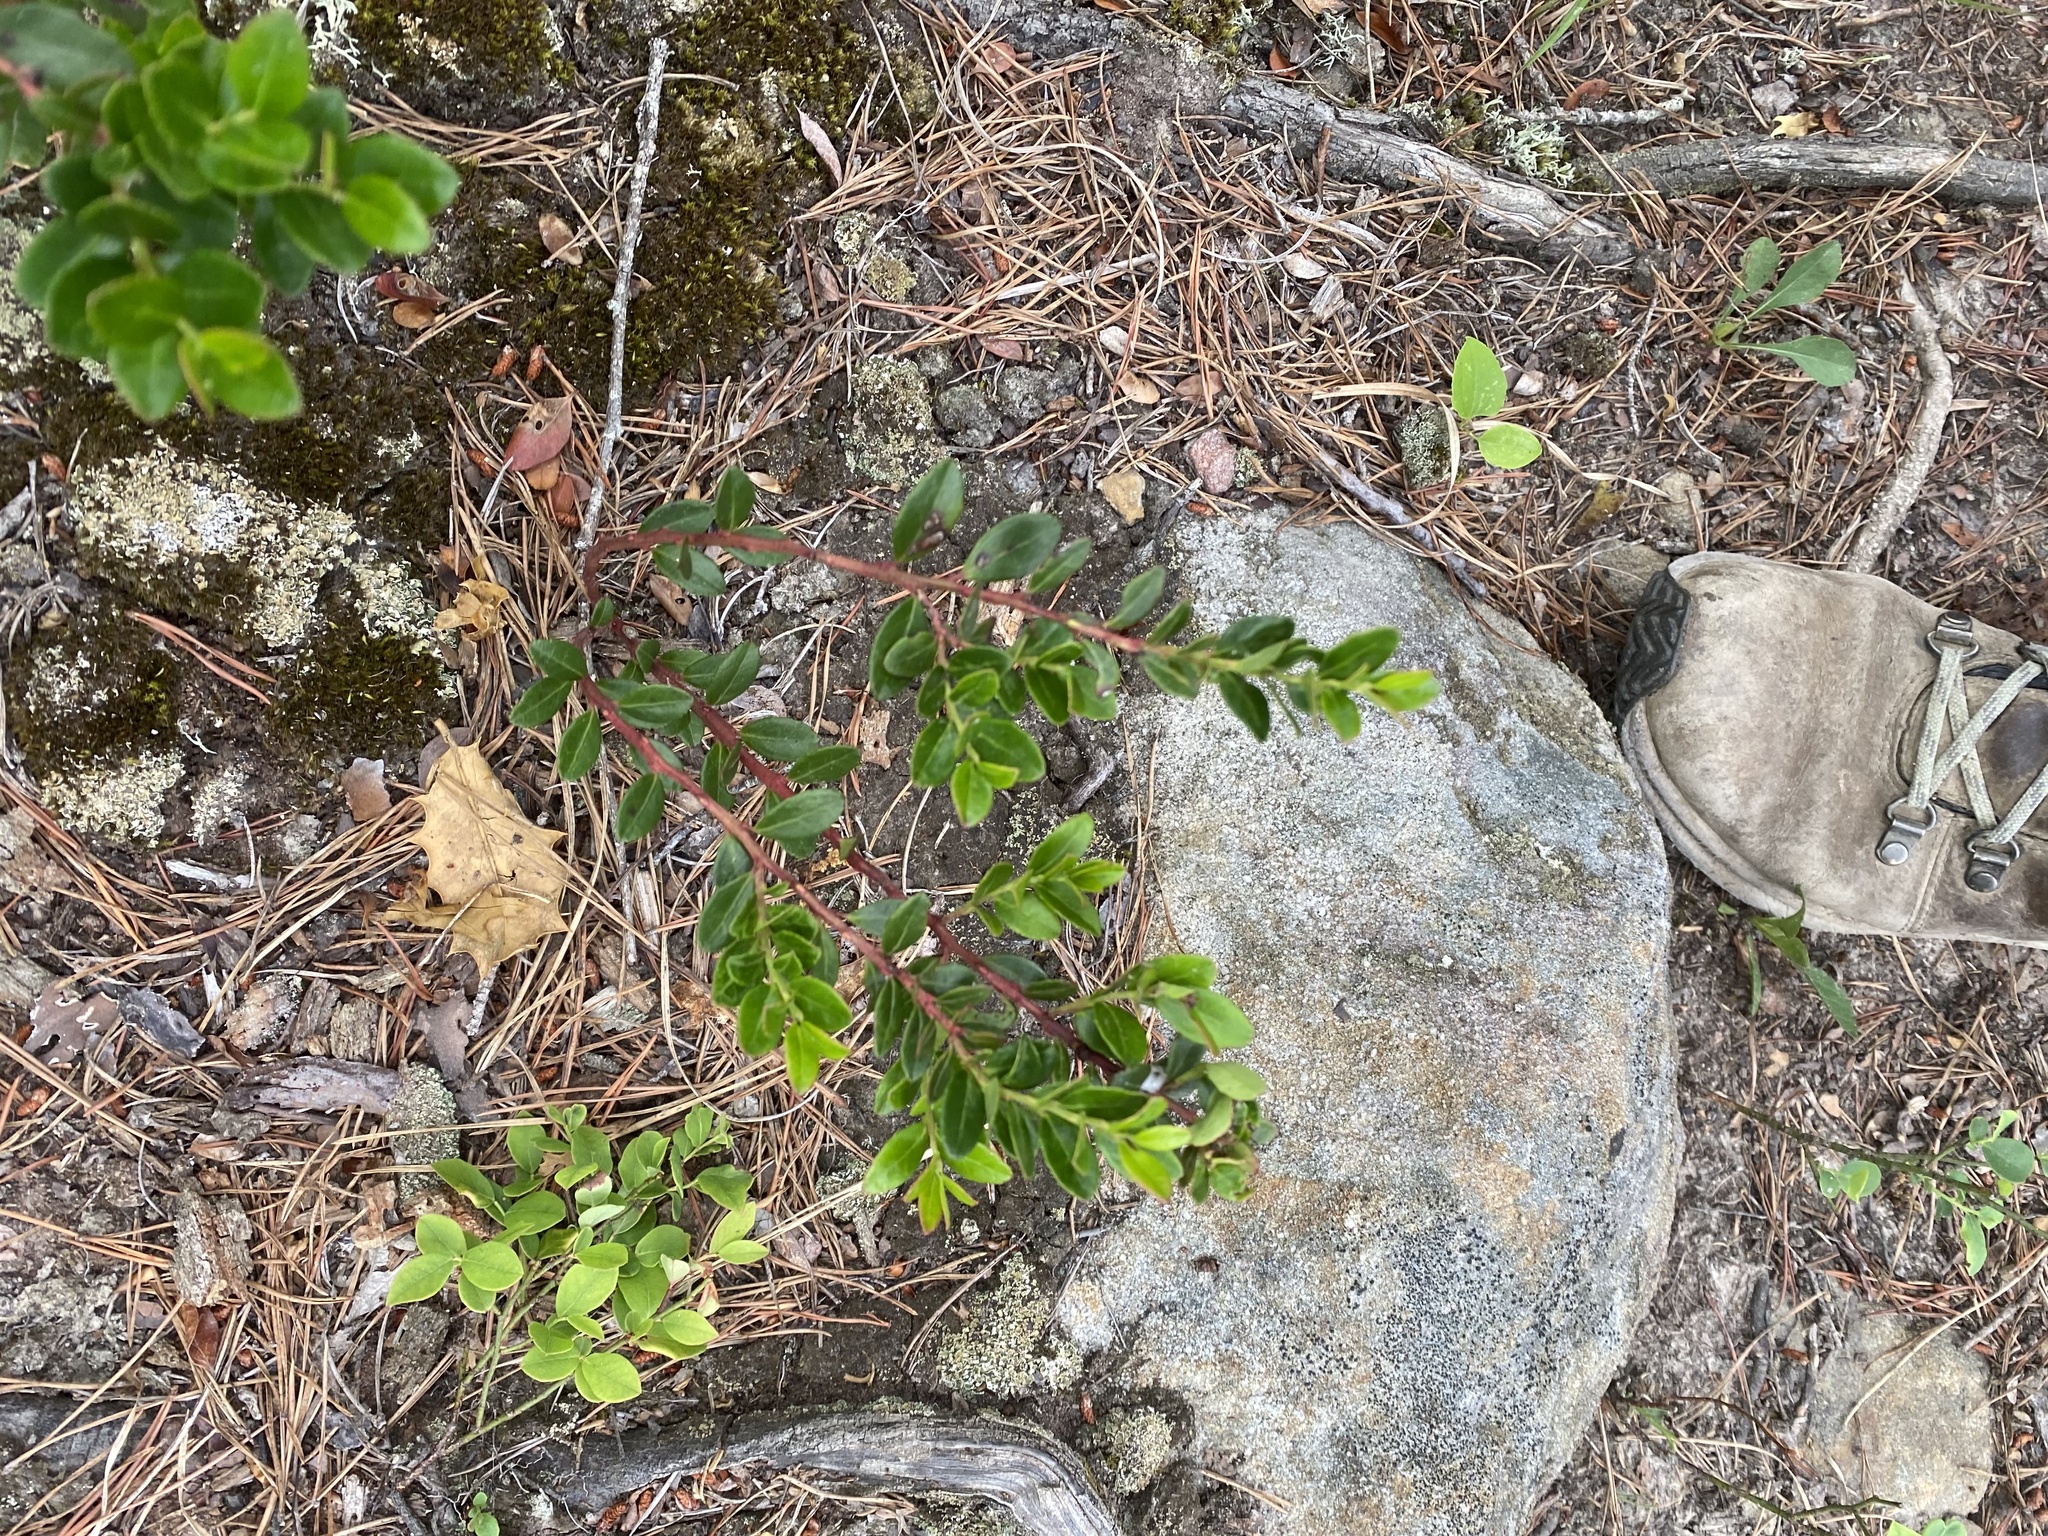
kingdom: Plantae
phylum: Tracheophyta
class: Magnoliopsida
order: Ericales
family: Ericaceae
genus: Gaylussacia
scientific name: Gaylussacia brachycera
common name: Box huckleberry
